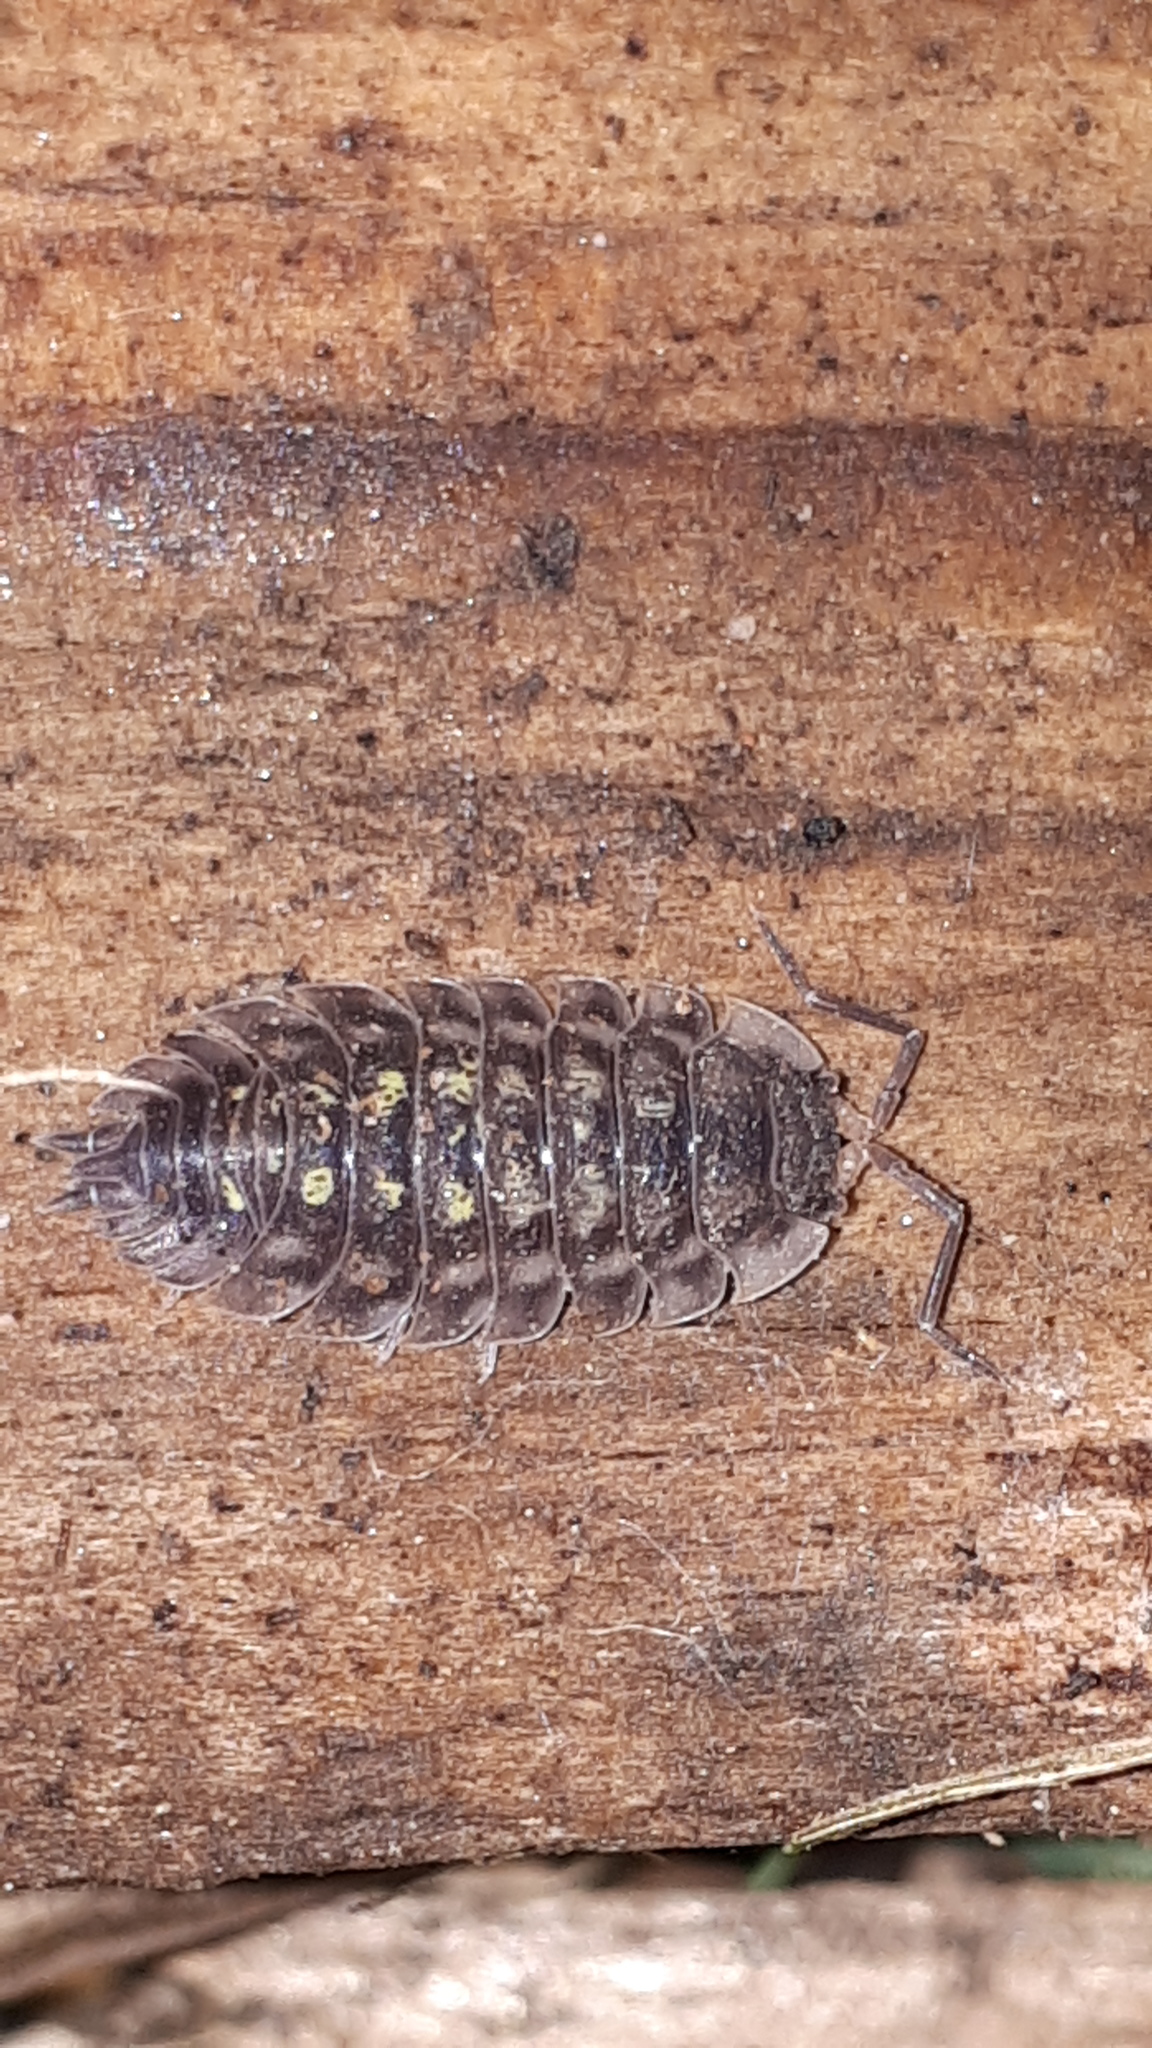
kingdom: Animalia
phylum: Arthropoda
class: Malacostraca
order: Isopoda
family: Oniscidae
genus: Oniscus
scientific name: Oniscus asellus
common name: Common shiny woodlouse
